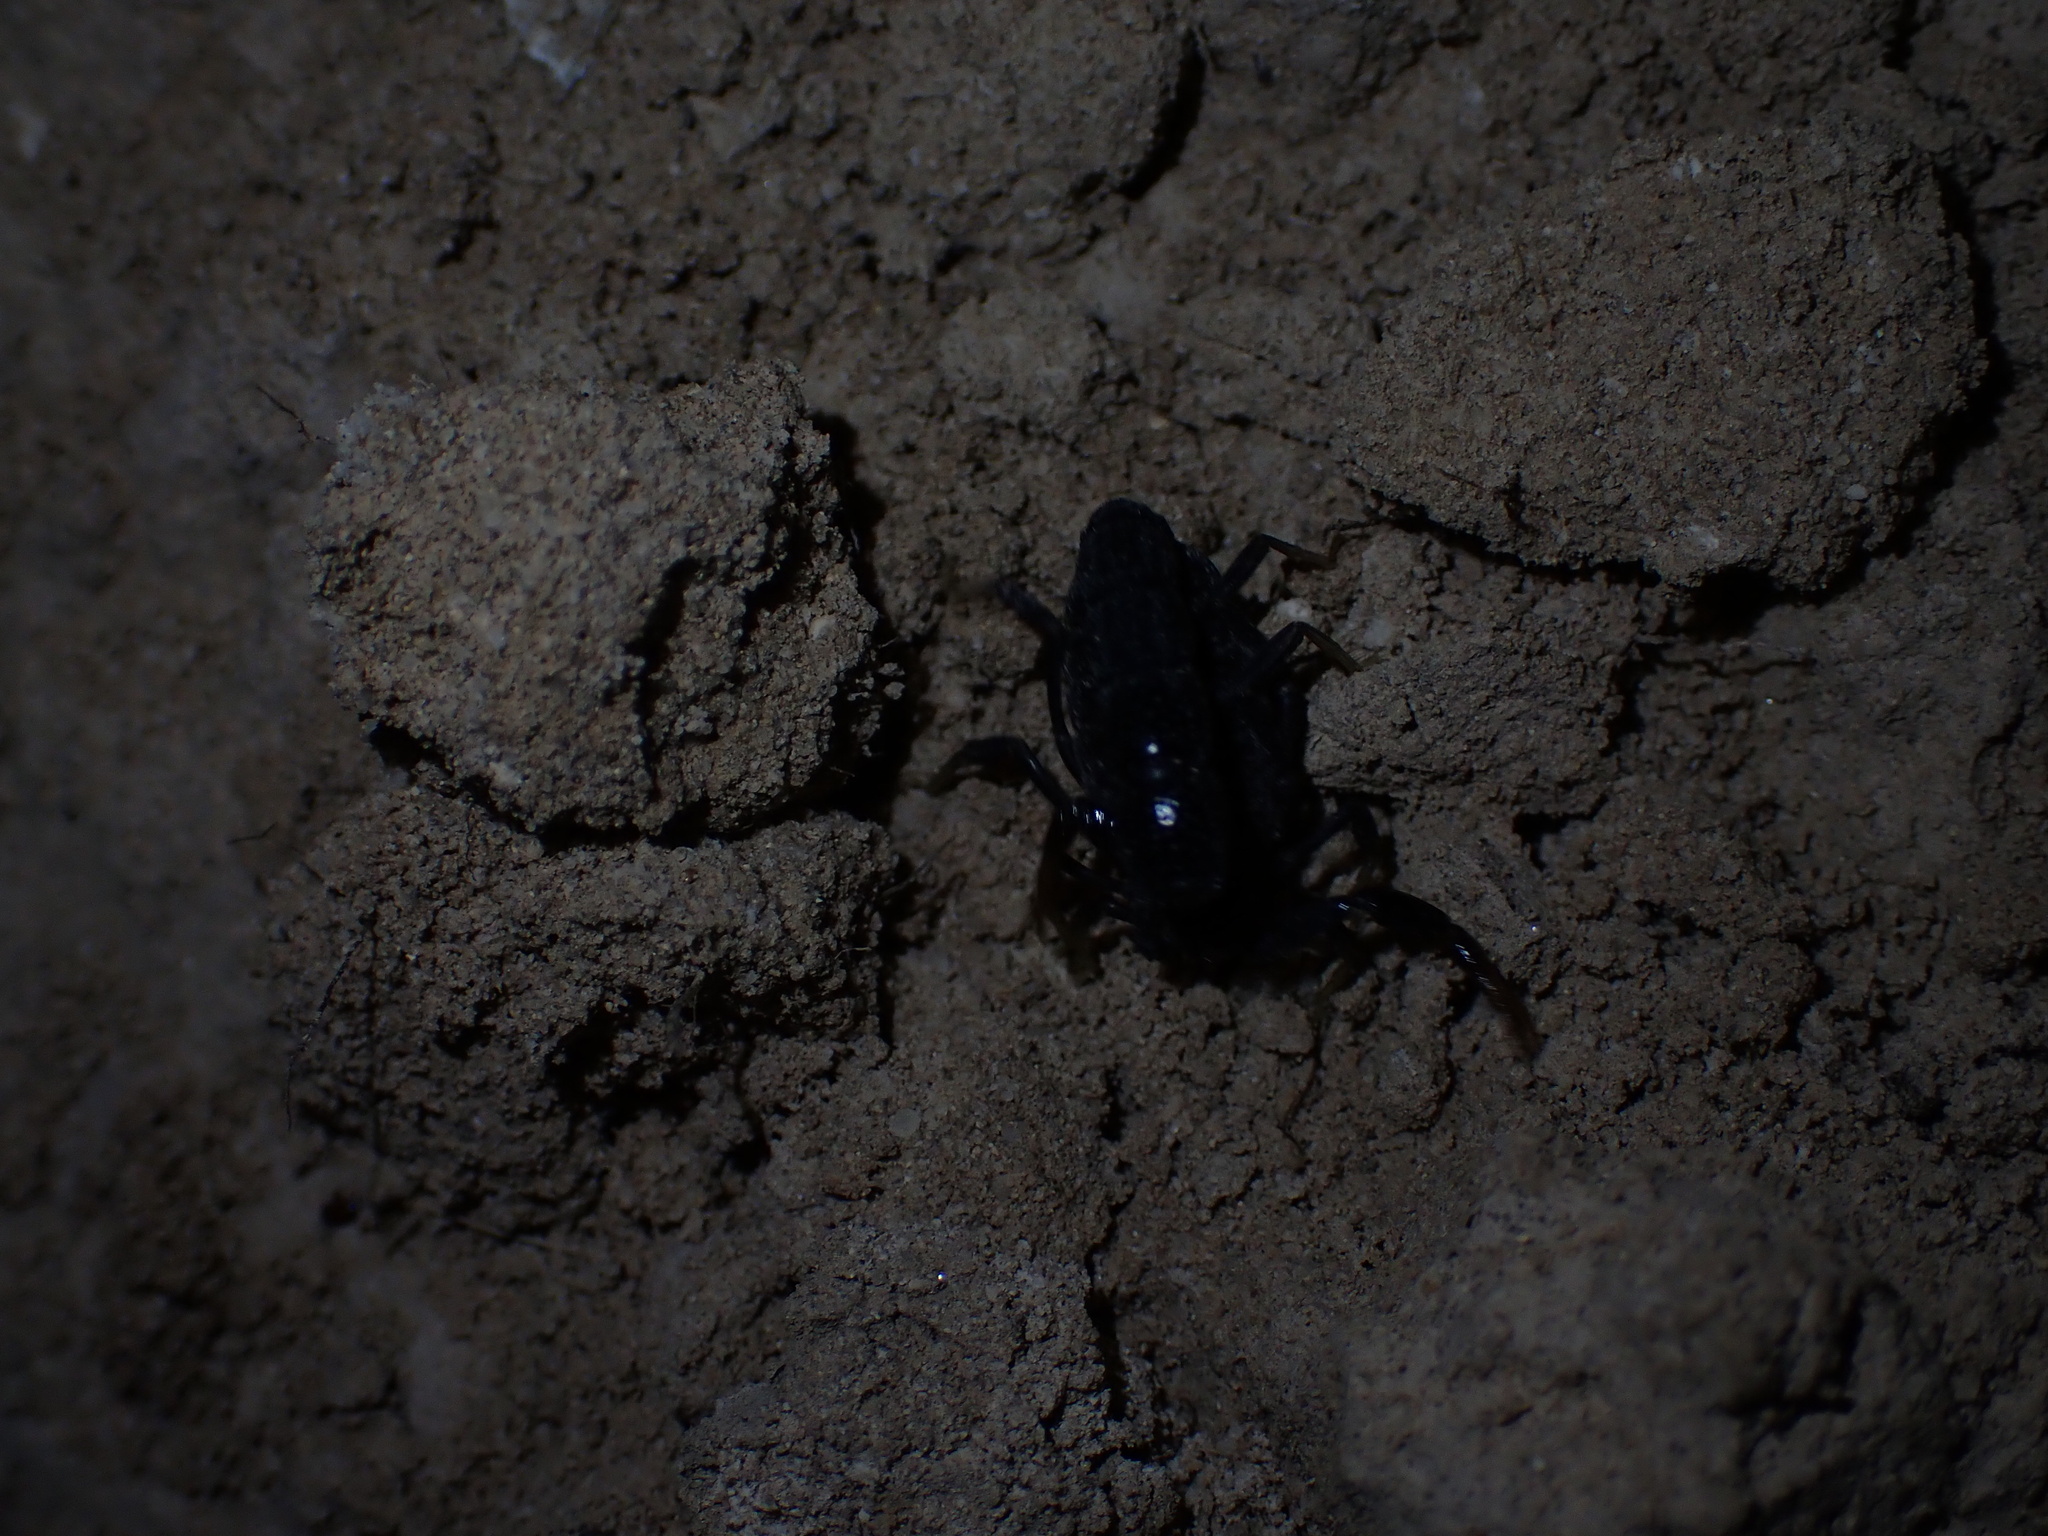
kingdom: Animalia
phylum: Arthropoda
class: Arachnida
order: Scorpiones
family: Buthidae
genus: Orthochirus
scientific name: Orthochirus mesopotamicus
